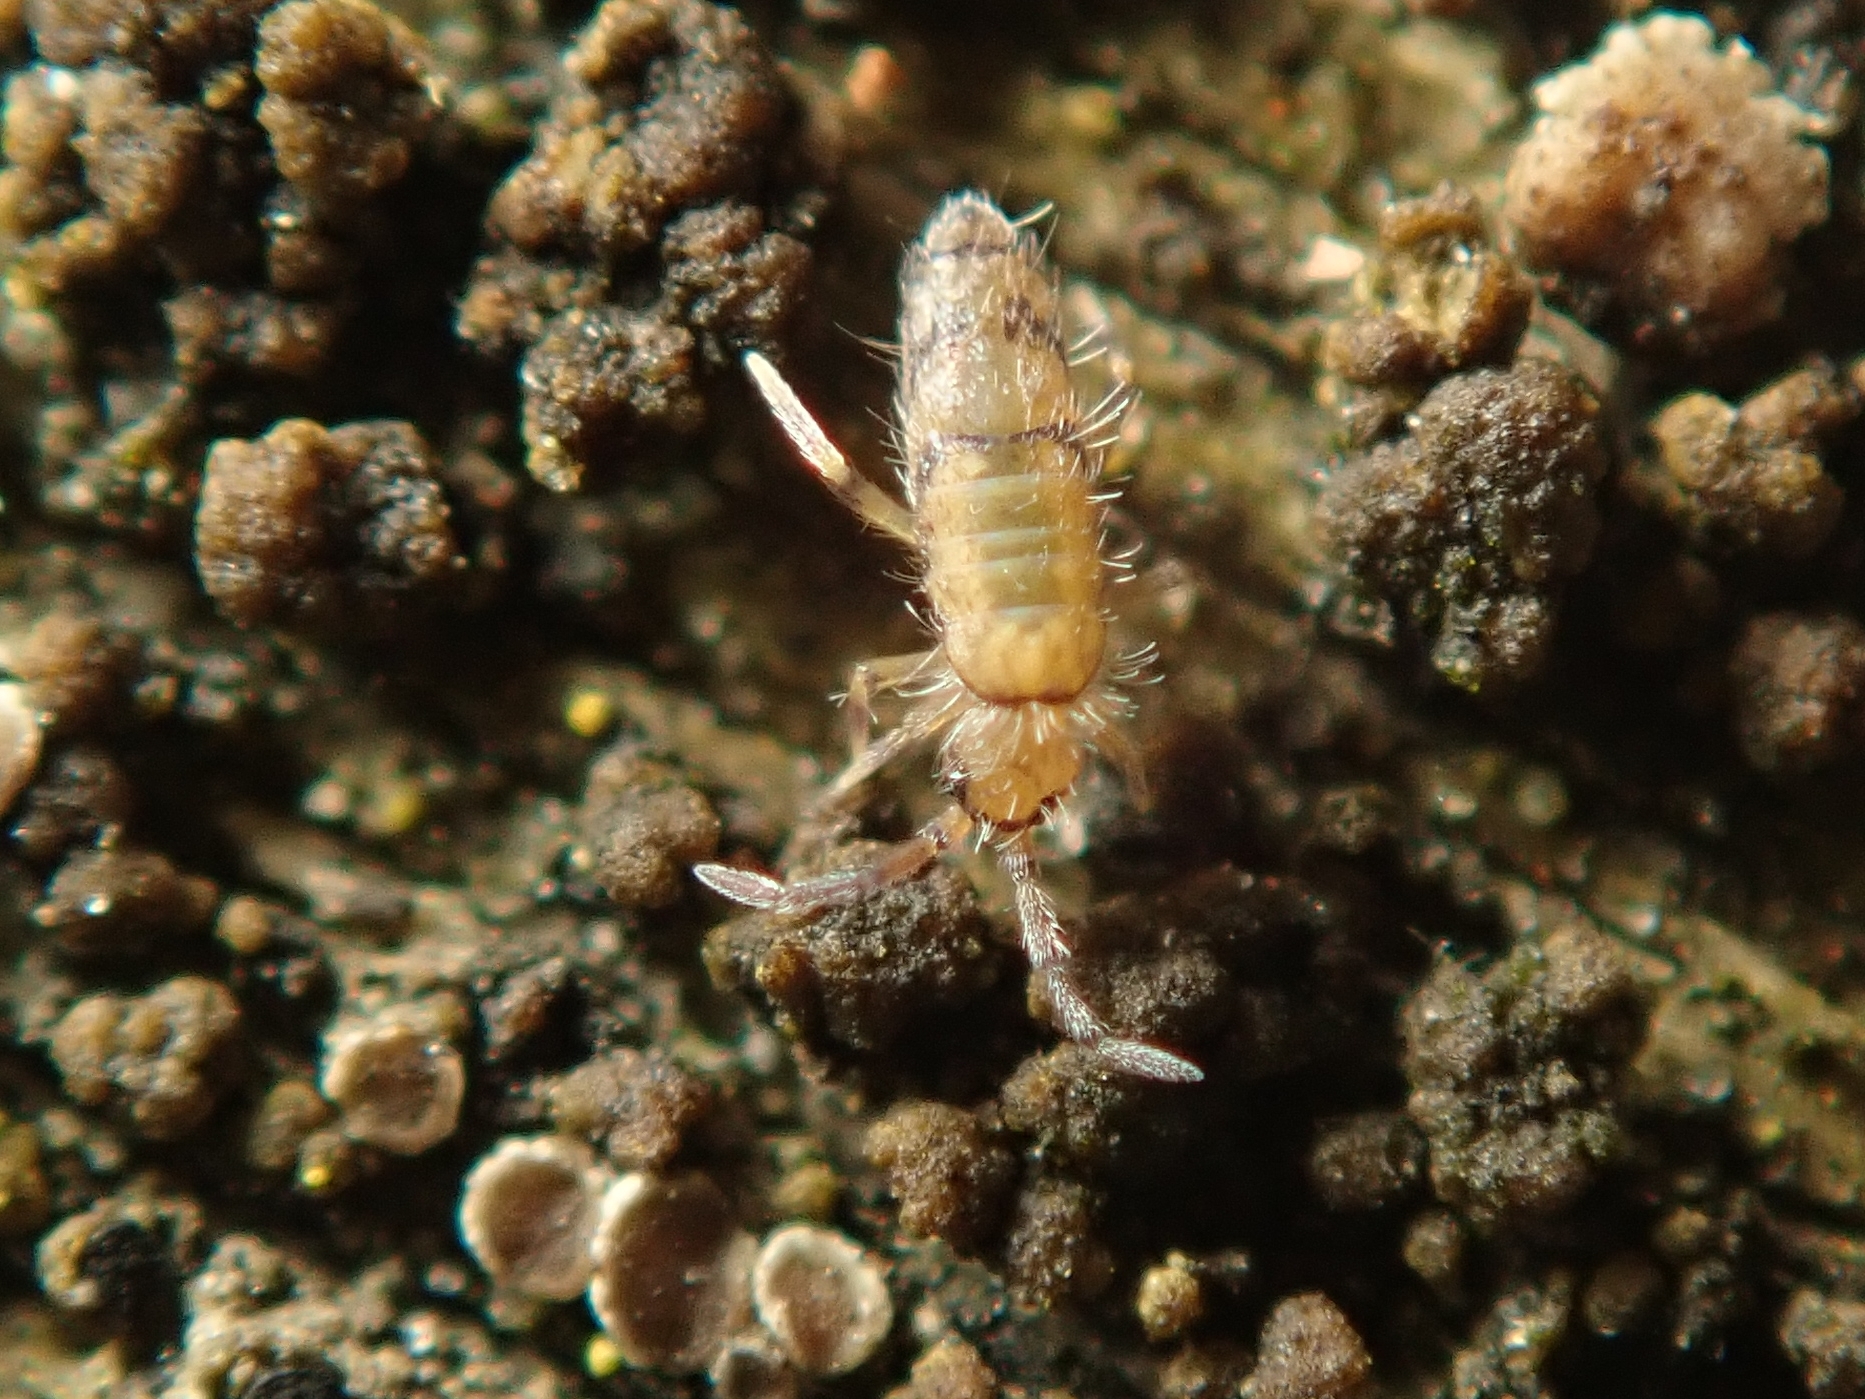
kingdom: Animalia
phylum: Arthropoda
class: Collembola
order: Entomobryomorpha
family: Entomobryidae
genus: Willowsia
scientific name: Willowsia nigromaculata
